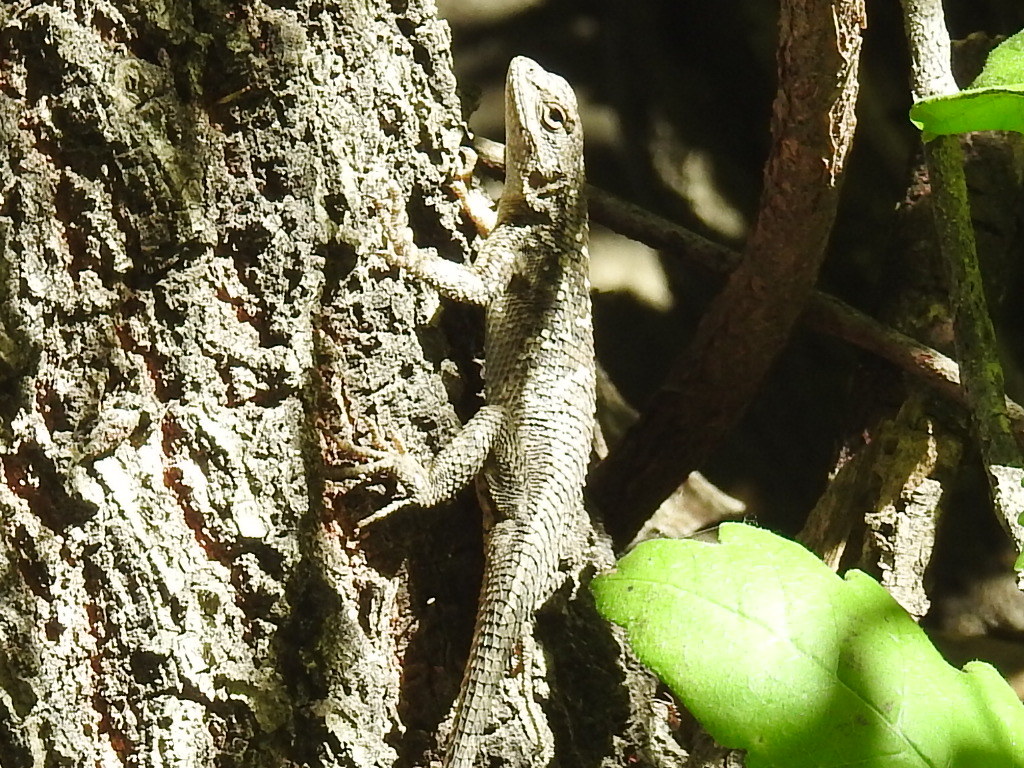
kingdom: Animalia
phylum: Chordata
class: Squamata
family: Phrynosomatidae
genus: Sceloporus
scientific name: Sceloporus occidentalis
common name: Western fence lizard
